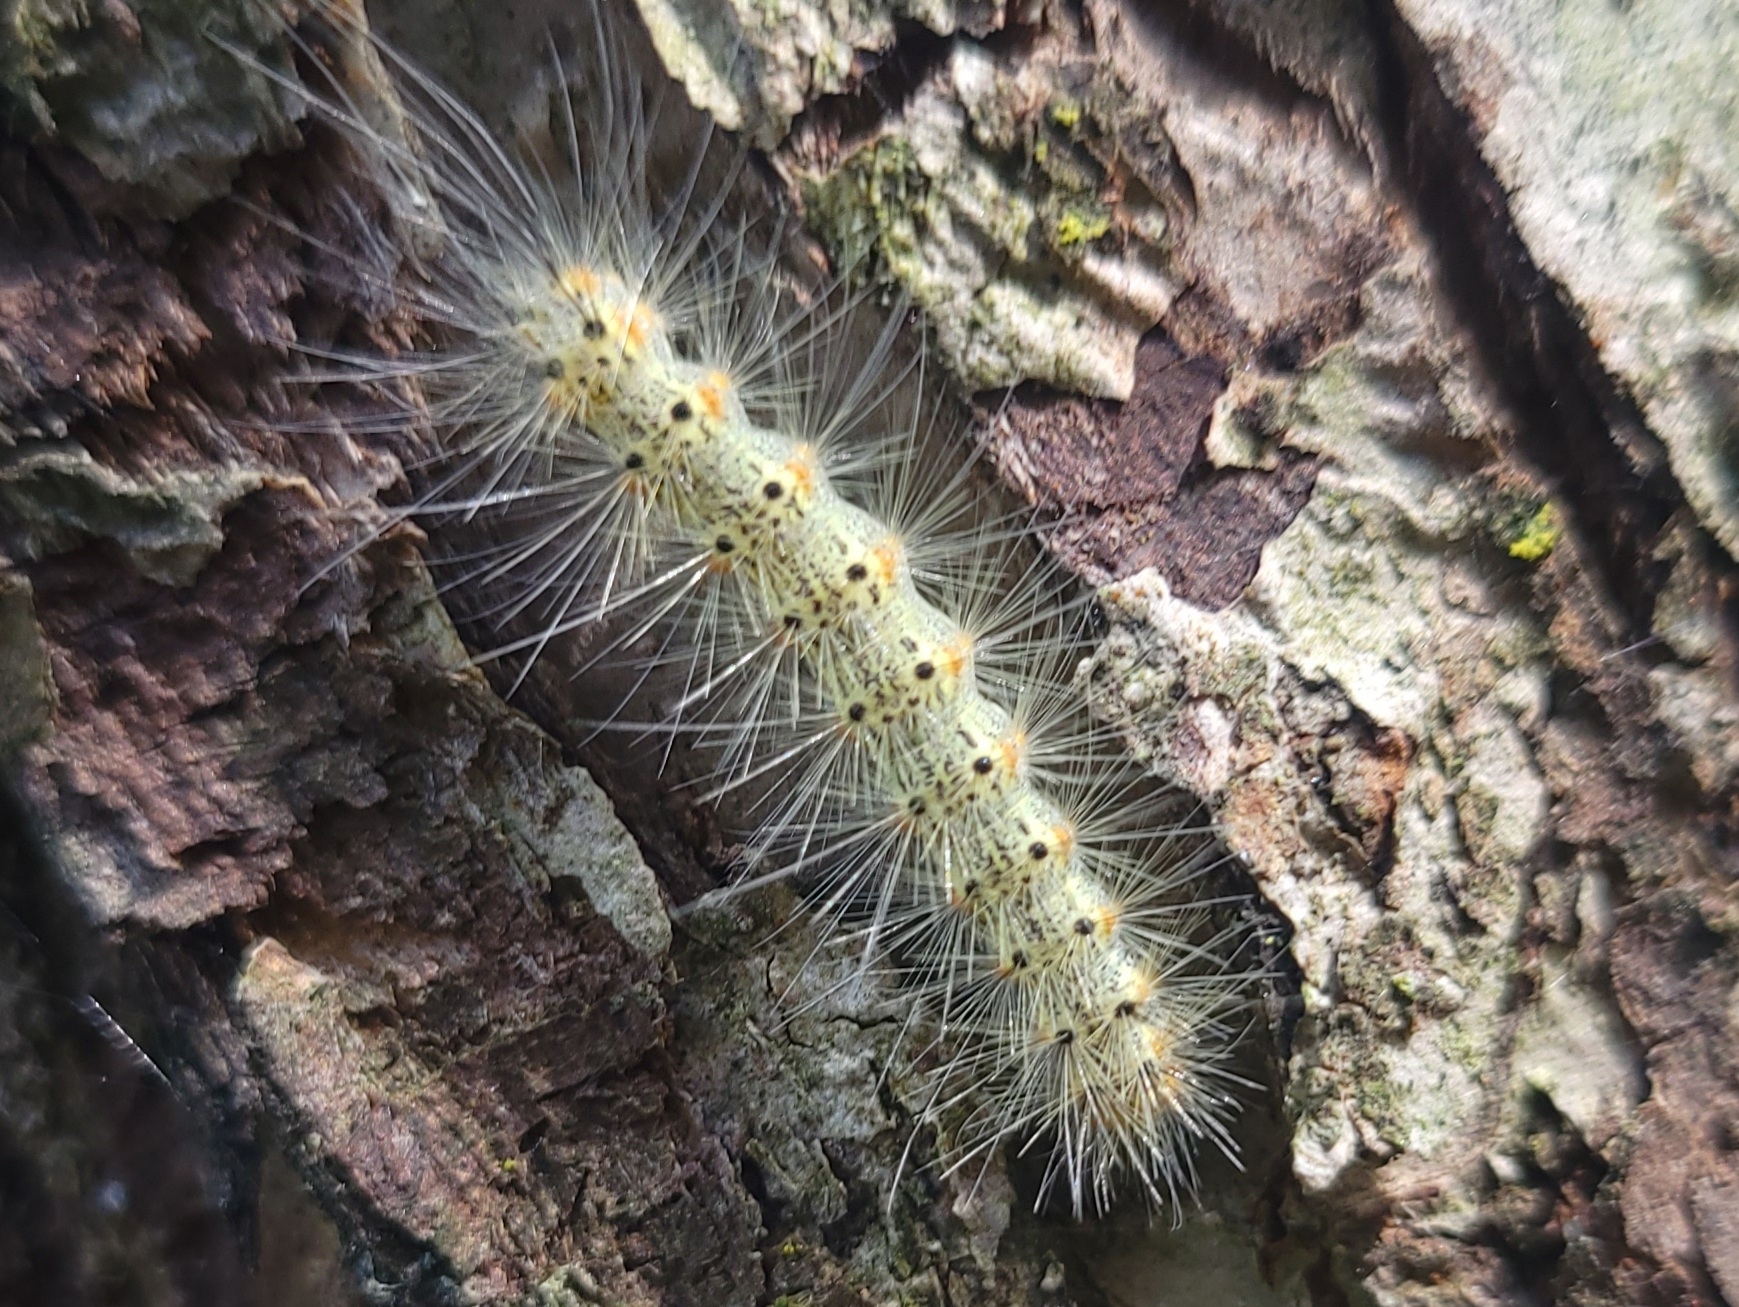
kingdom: Animalia
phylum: Arthropoda
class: Insecta
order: Lepidoptera
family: Erebidae
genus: Hyphantria
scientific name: Hyphantria cunea
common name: American white moth
